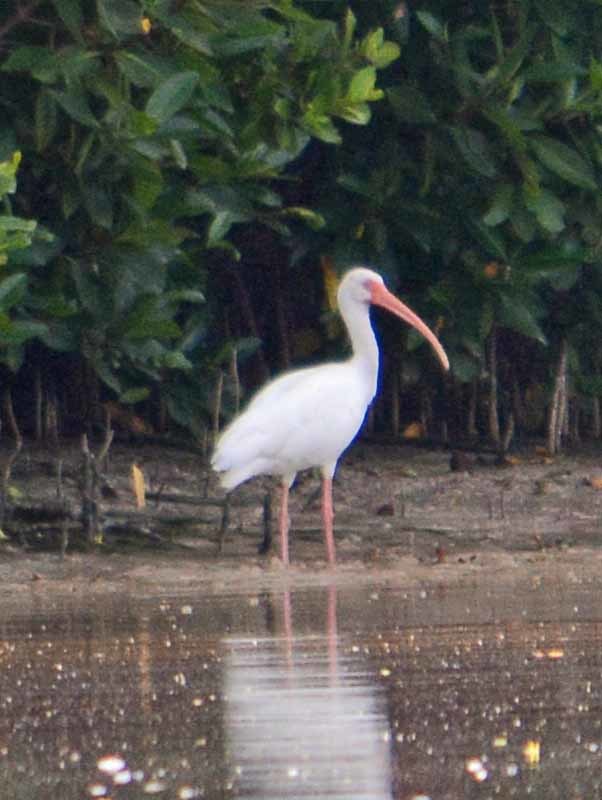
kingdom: Animalia
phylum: Chordata
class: Aves
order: Pelecaniformes
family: Threskiornithidae
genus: Eudocimus
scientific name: Eudocimus albus
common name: White ibis
